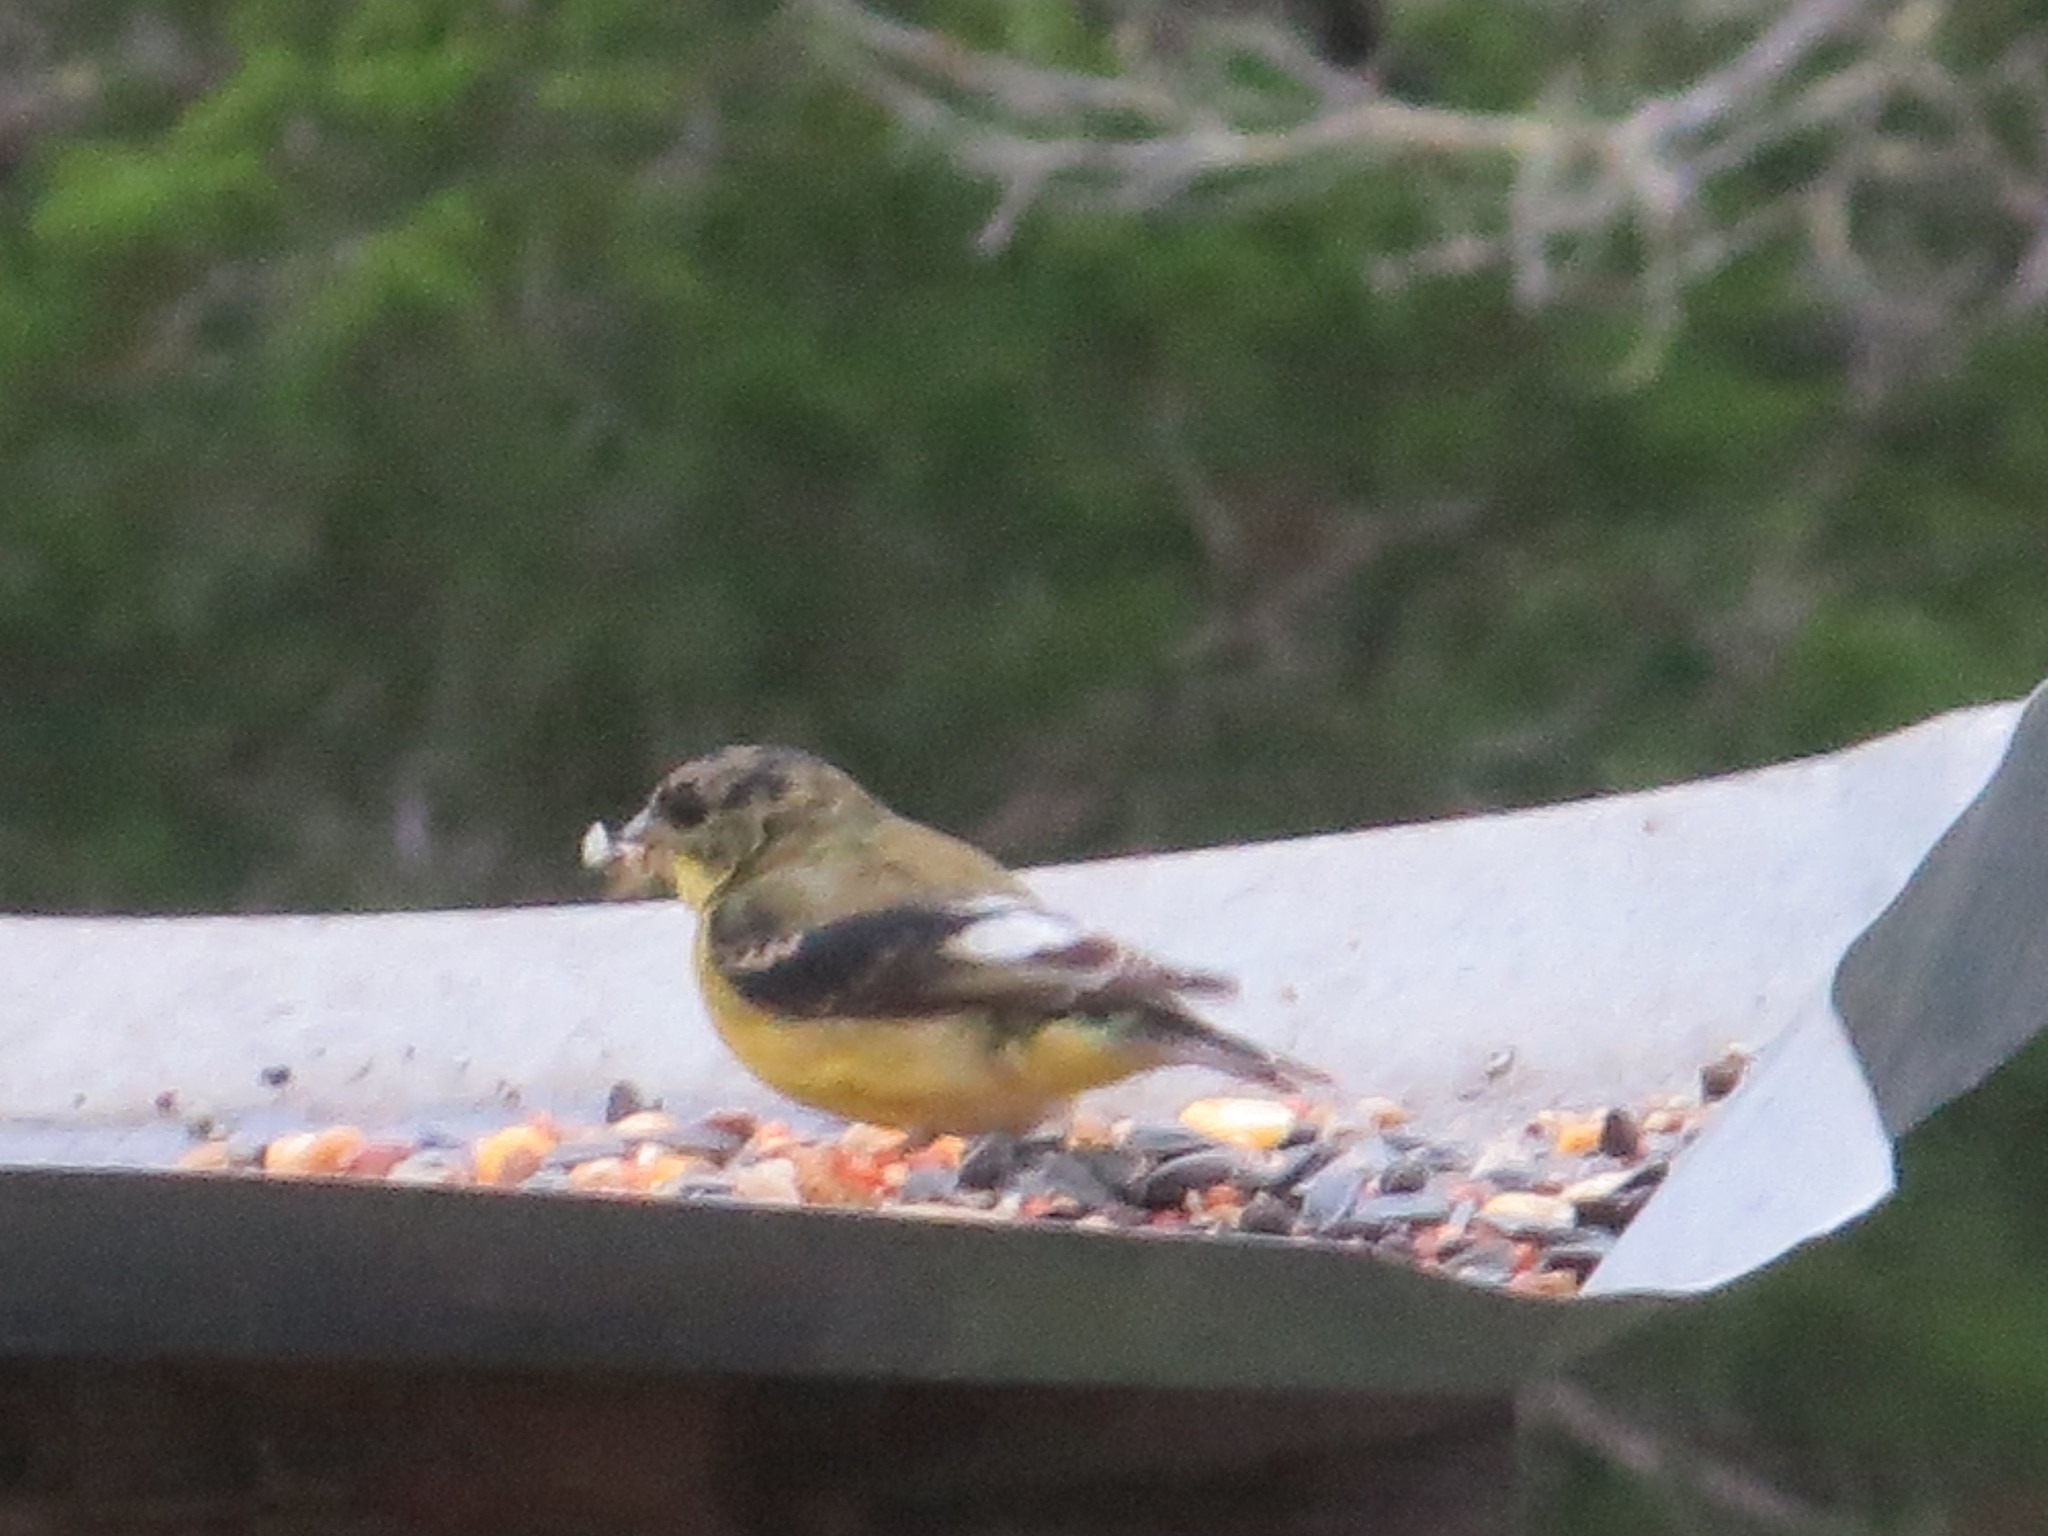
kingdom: Animalia
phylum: Chordata
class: Aves
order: Passeriformes
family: Fringillidae
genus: Spinus
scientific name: Spinus psaltria
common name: Lesser goldfinch
